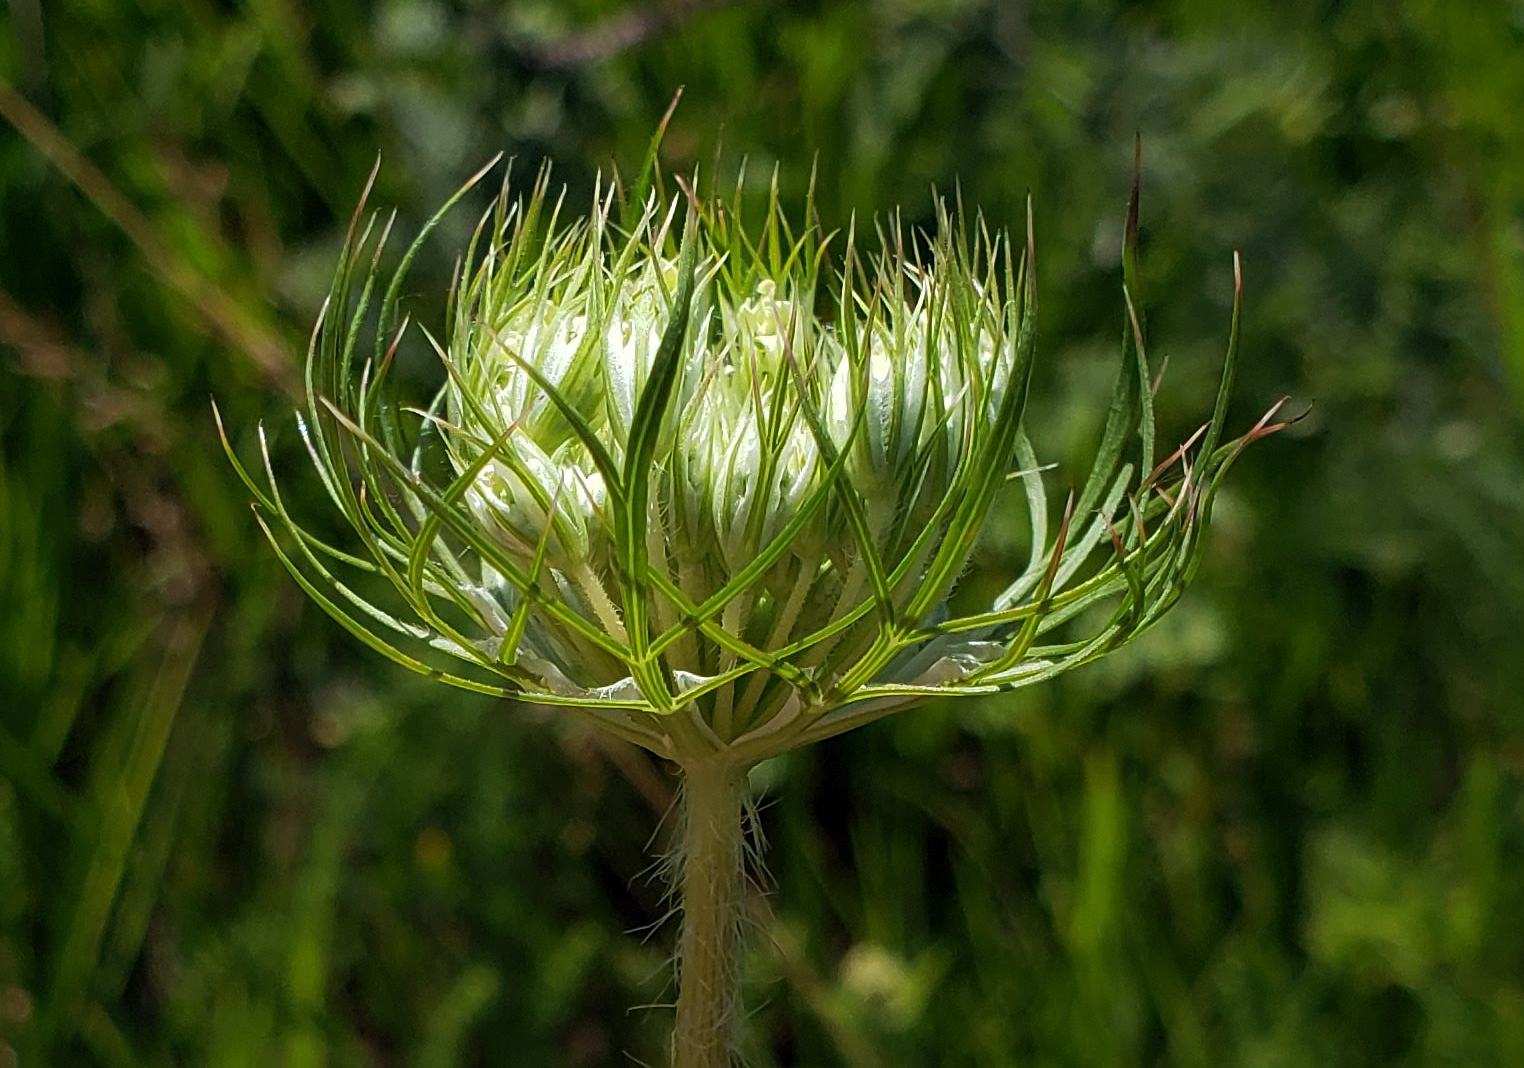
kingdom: Plantae
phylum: Tracheophyta
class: Magnoliopsida
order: Apiales
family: Apiaceae
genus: Daucus
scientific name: Daucus carota
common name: Wild carrot
